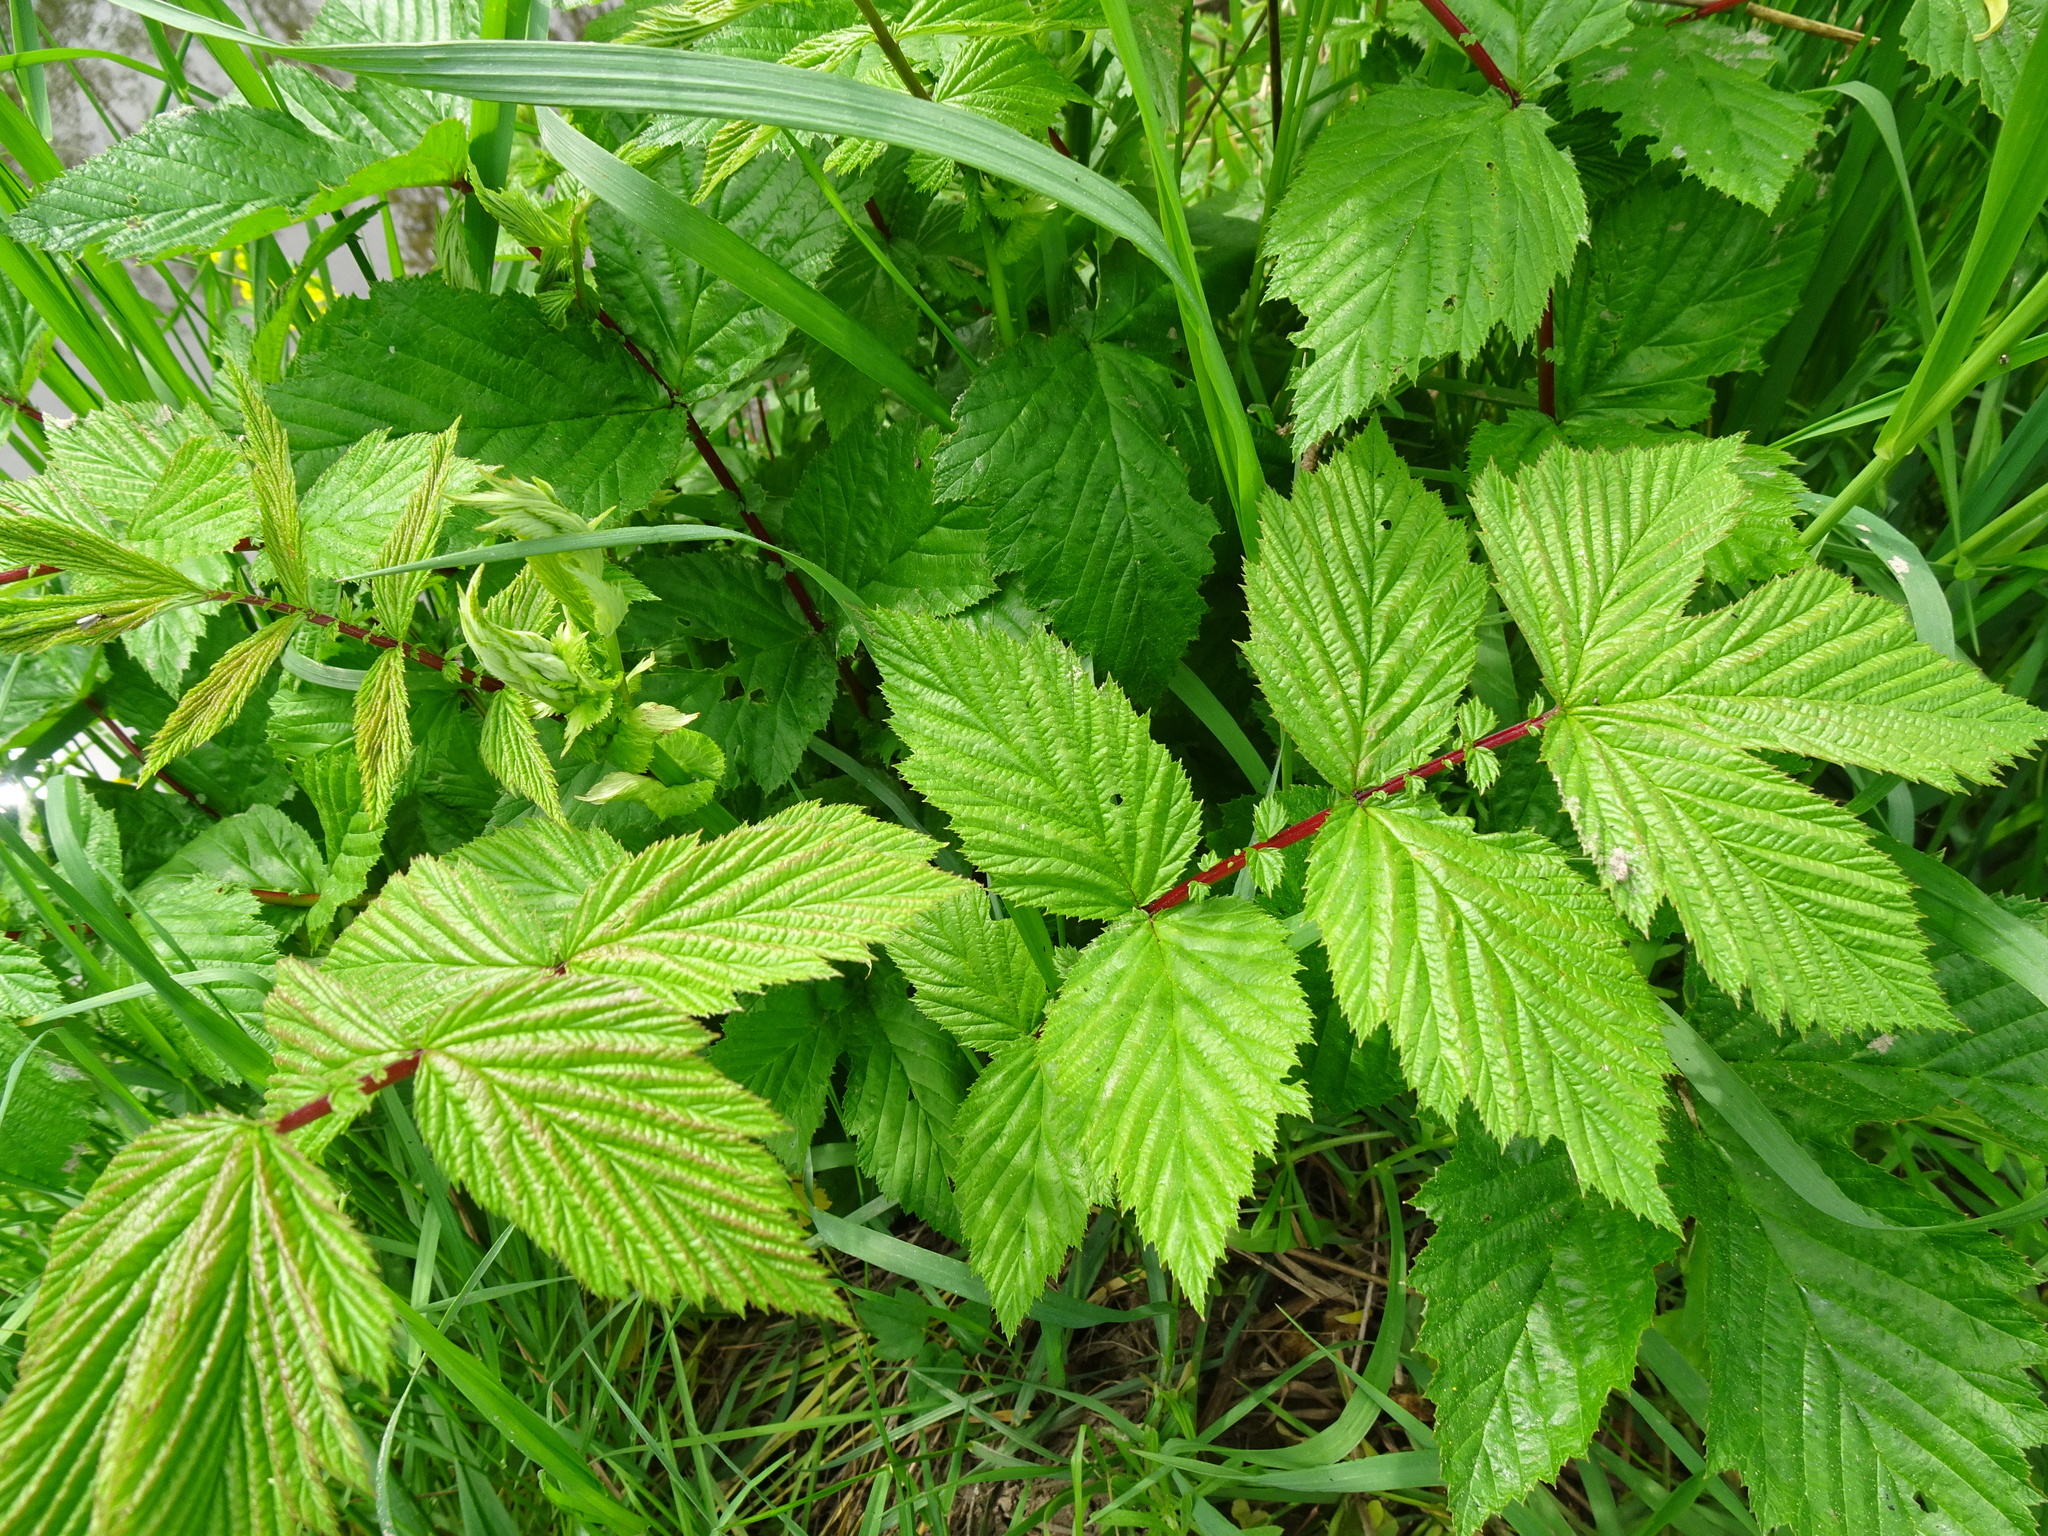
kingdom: Plantae
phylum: Tracheophyta
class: Magnoliopsida
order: Rosales
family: Rosaceae
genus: Filipendula
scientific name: Filipendula ulmaria
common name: Meadowsweet
